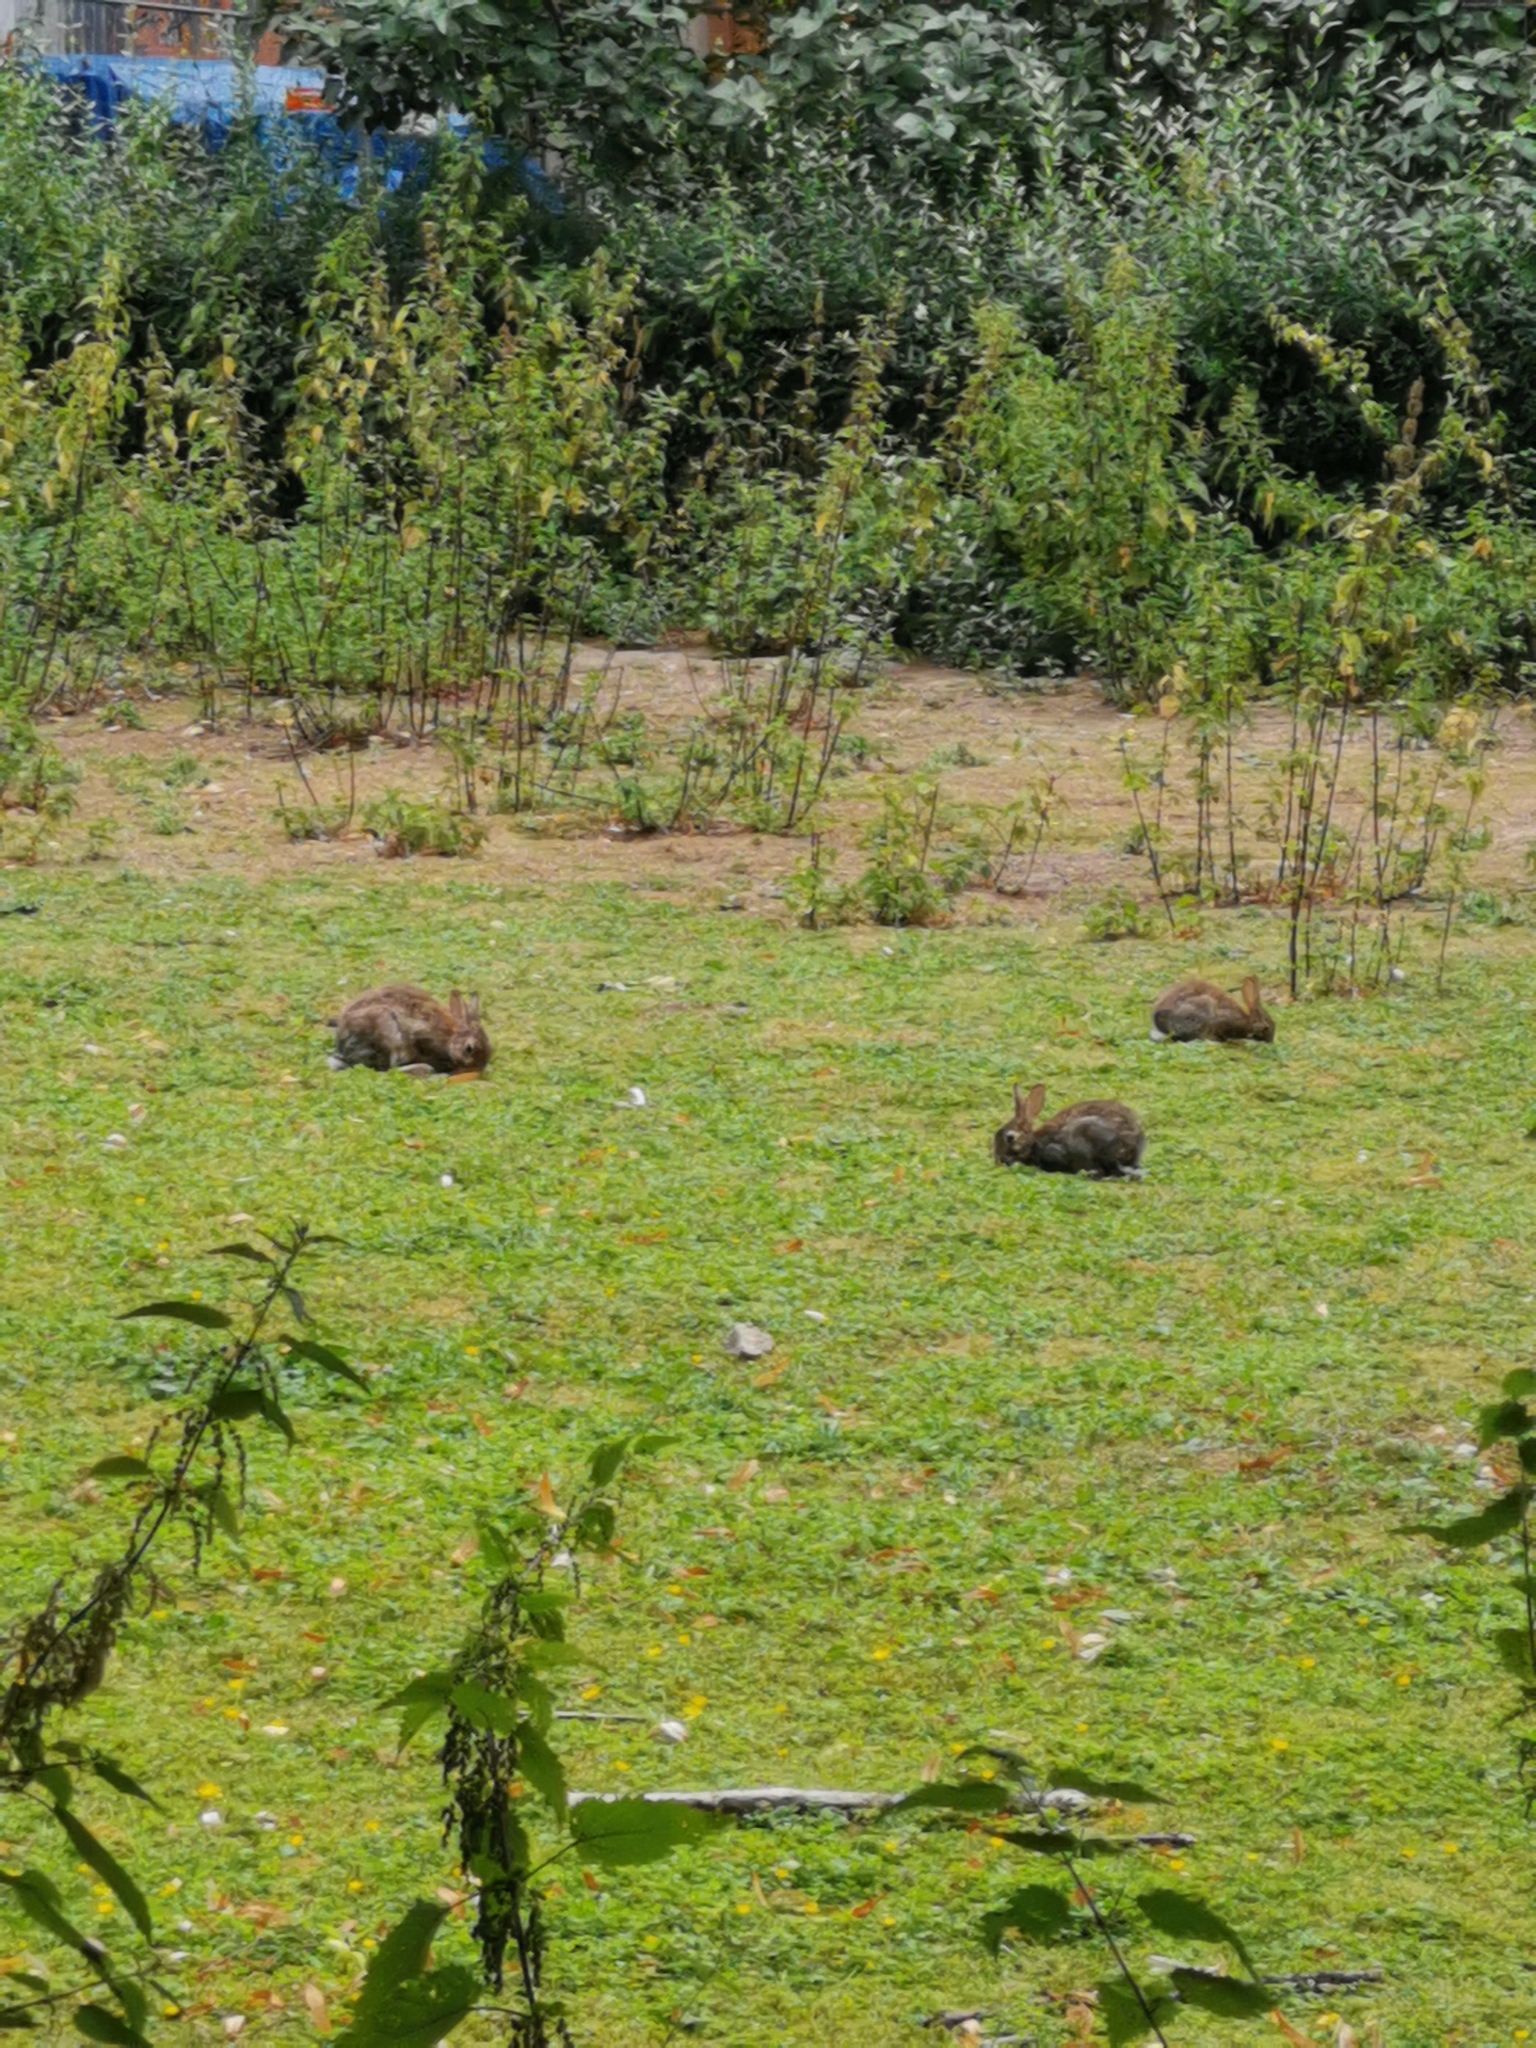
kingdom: Animalia
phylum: Chordata
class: Mammalia
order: Lagomorpha
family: Leporidae
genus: Oryctolagus
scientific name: Oryctolagus cuniculus
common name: European rabbit
